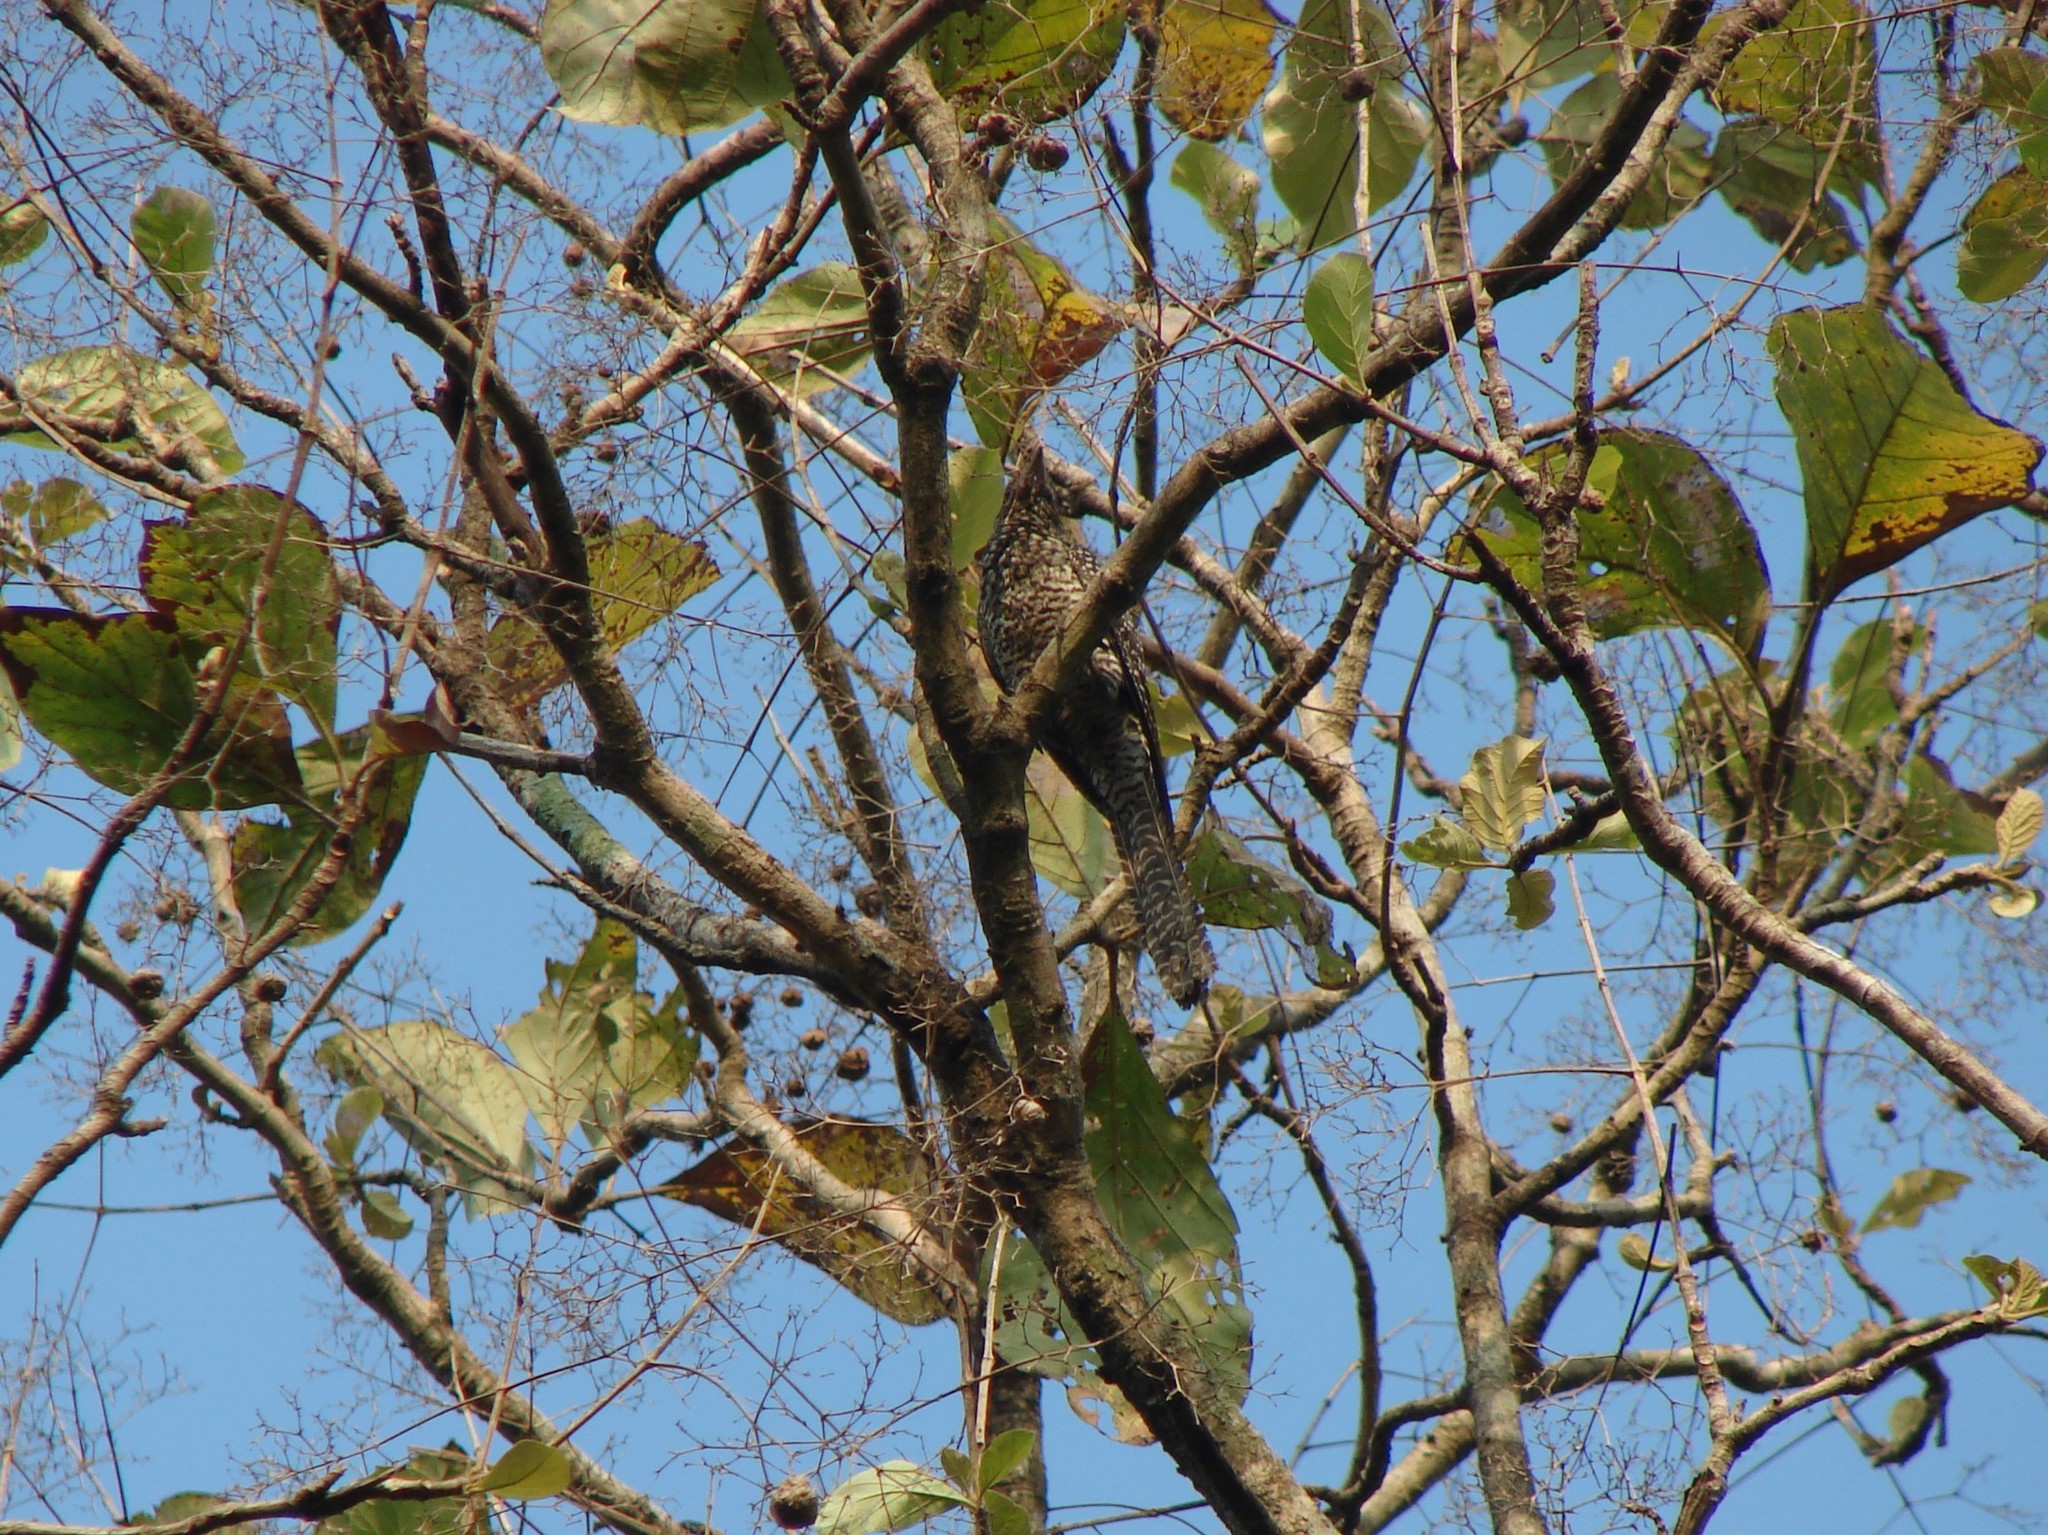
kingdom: Animalia
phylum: Chordata
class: Aves
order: Cuculiformes
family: Cuculidae
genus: Eudynamys
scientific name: Eudynamys scolopaceus
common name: Asian koel
